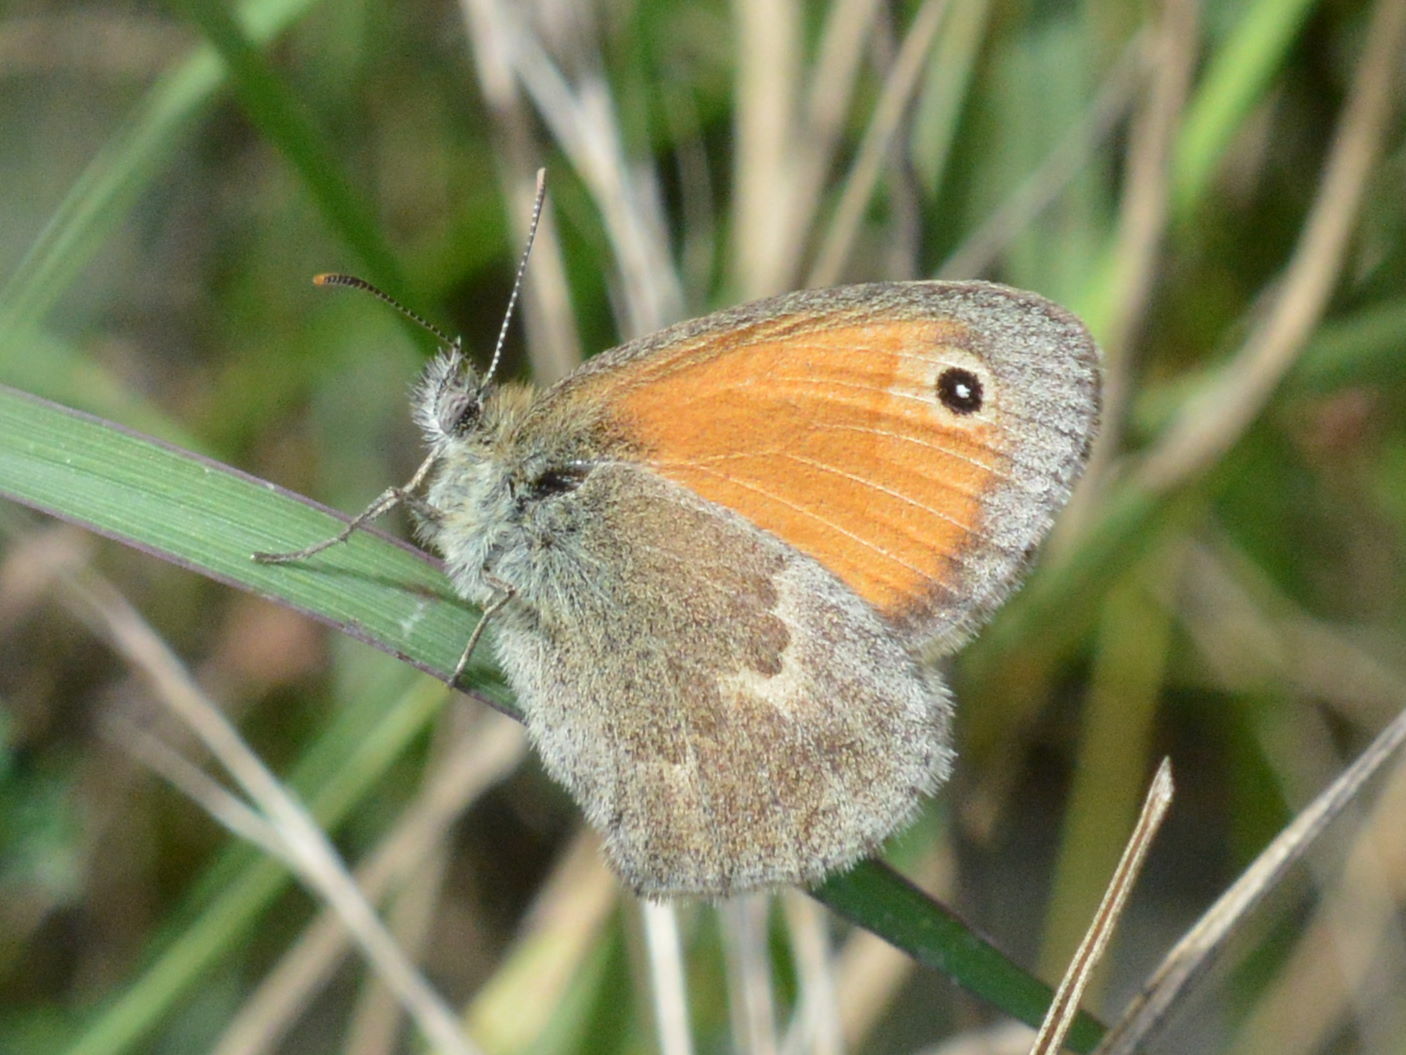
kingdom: Animalia
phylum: Arthropoda
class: Insecta
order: Lepidoptera
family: Nymphalidae
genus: Coenonympha
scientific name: Coenonympha pamphilus
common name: Small heath
